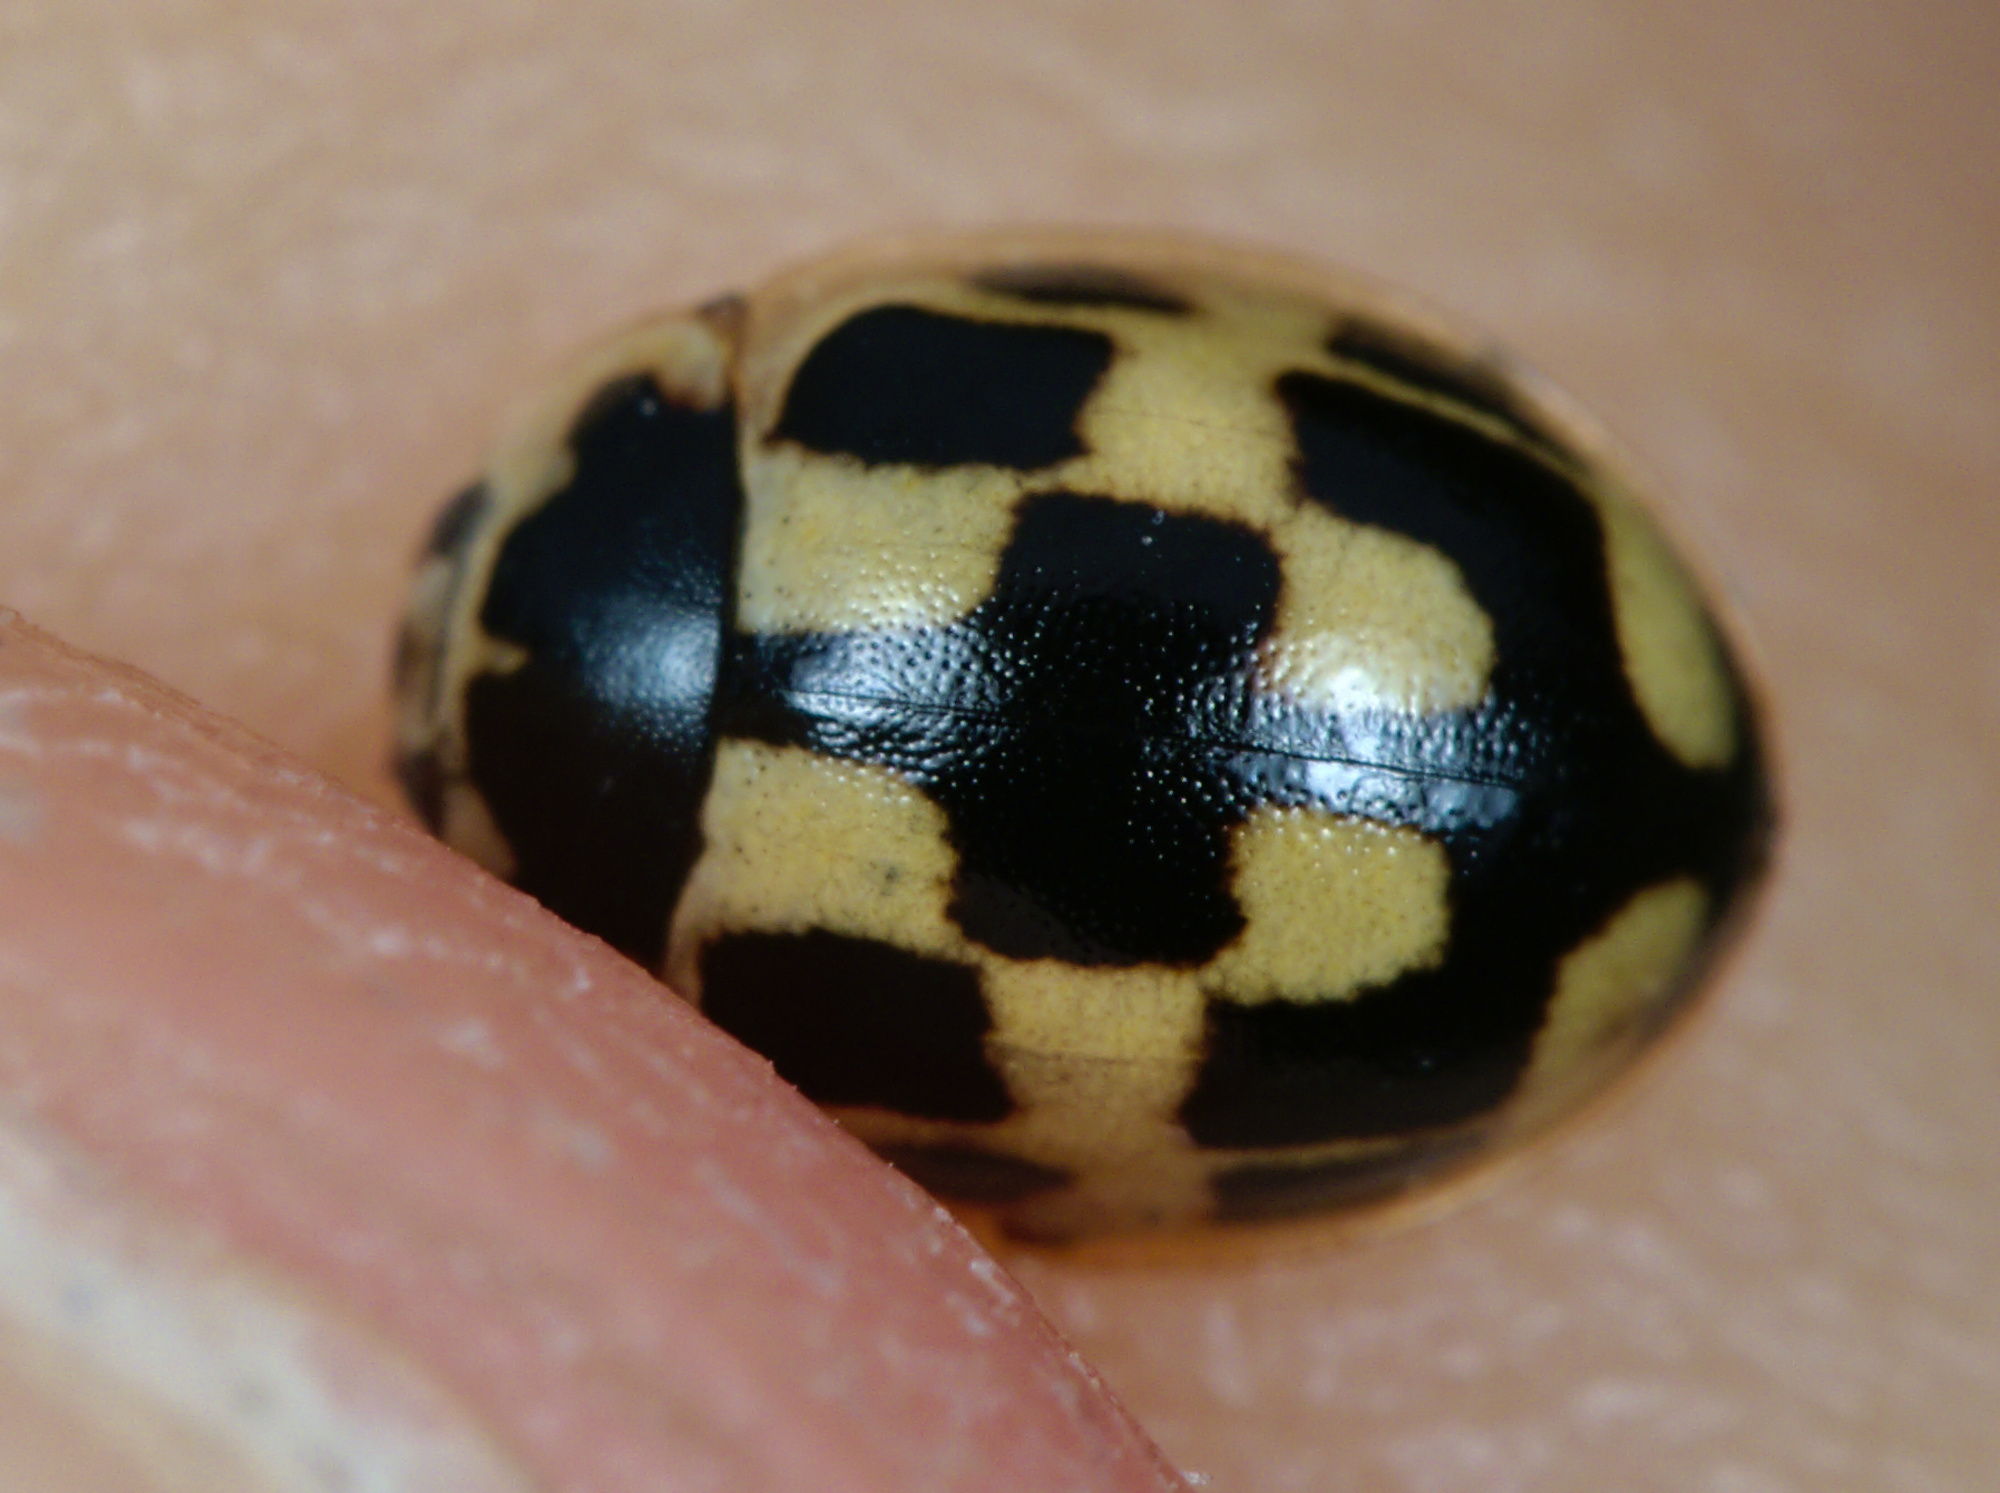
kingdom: Animalia
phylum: Arthropoda
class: Insecta
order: Coleoptera
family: Coccinellidae
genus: Propylaea
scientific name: Propylaea quatuordecimpunctata
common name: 14-spotted ladybird beetle
